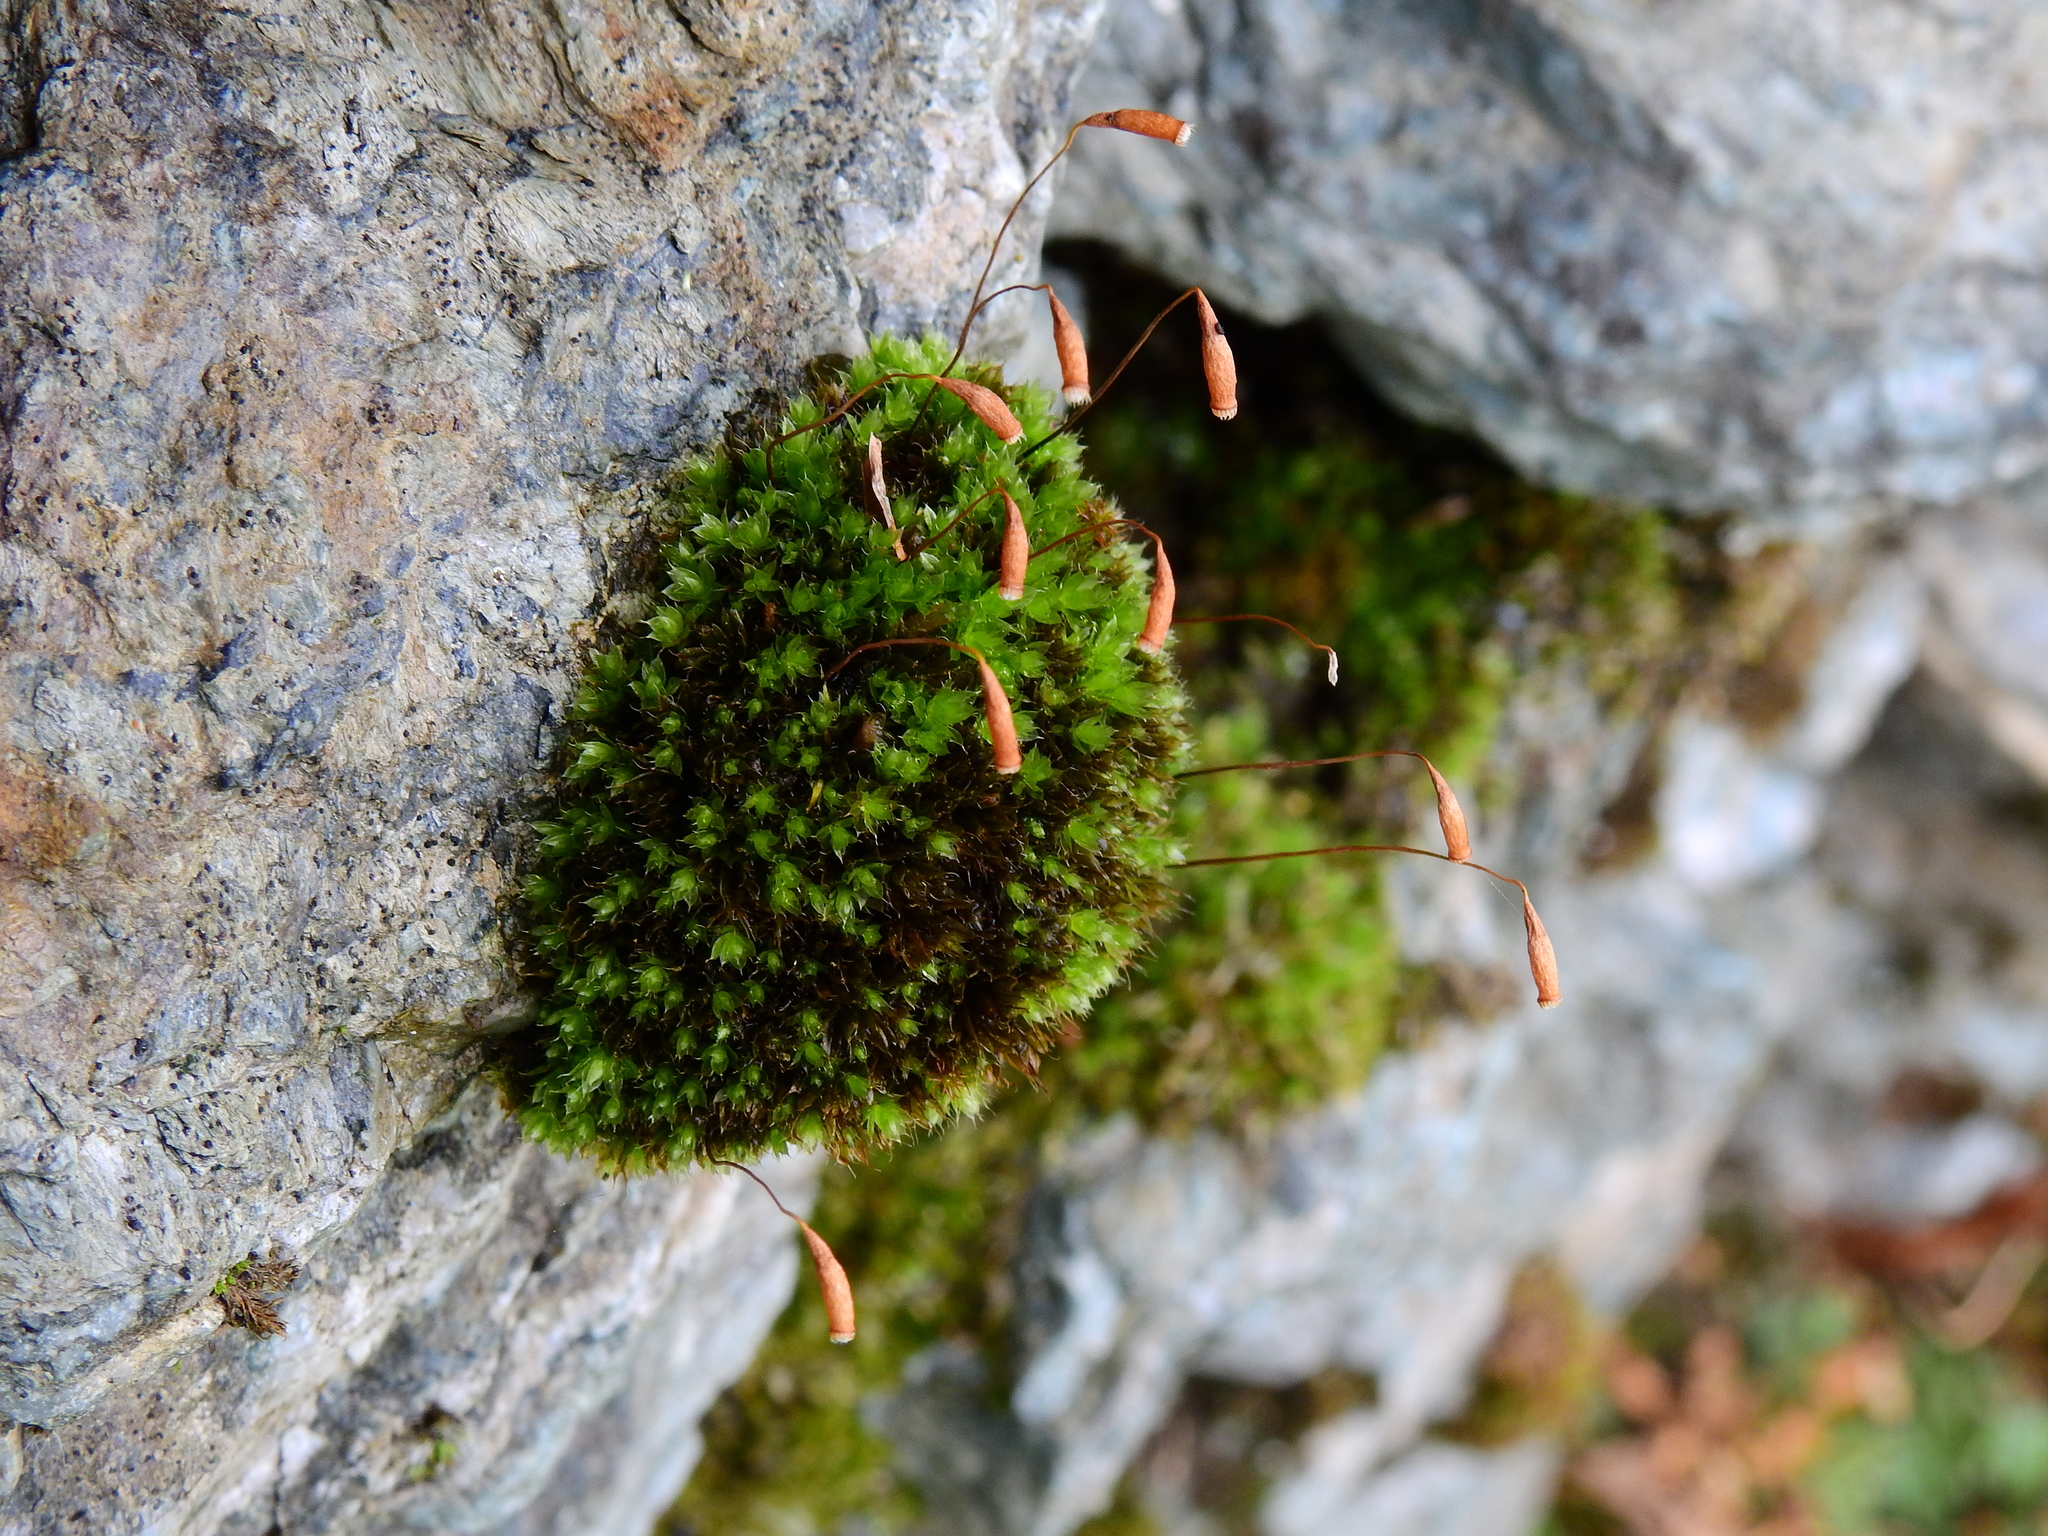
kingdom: Plantae
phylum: Bryophyta
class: Bryopsida
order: Bryales
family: Bryaceae
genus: Rosulabryum
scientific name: Rosulabryum capillare
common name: Capillary thread-moss
